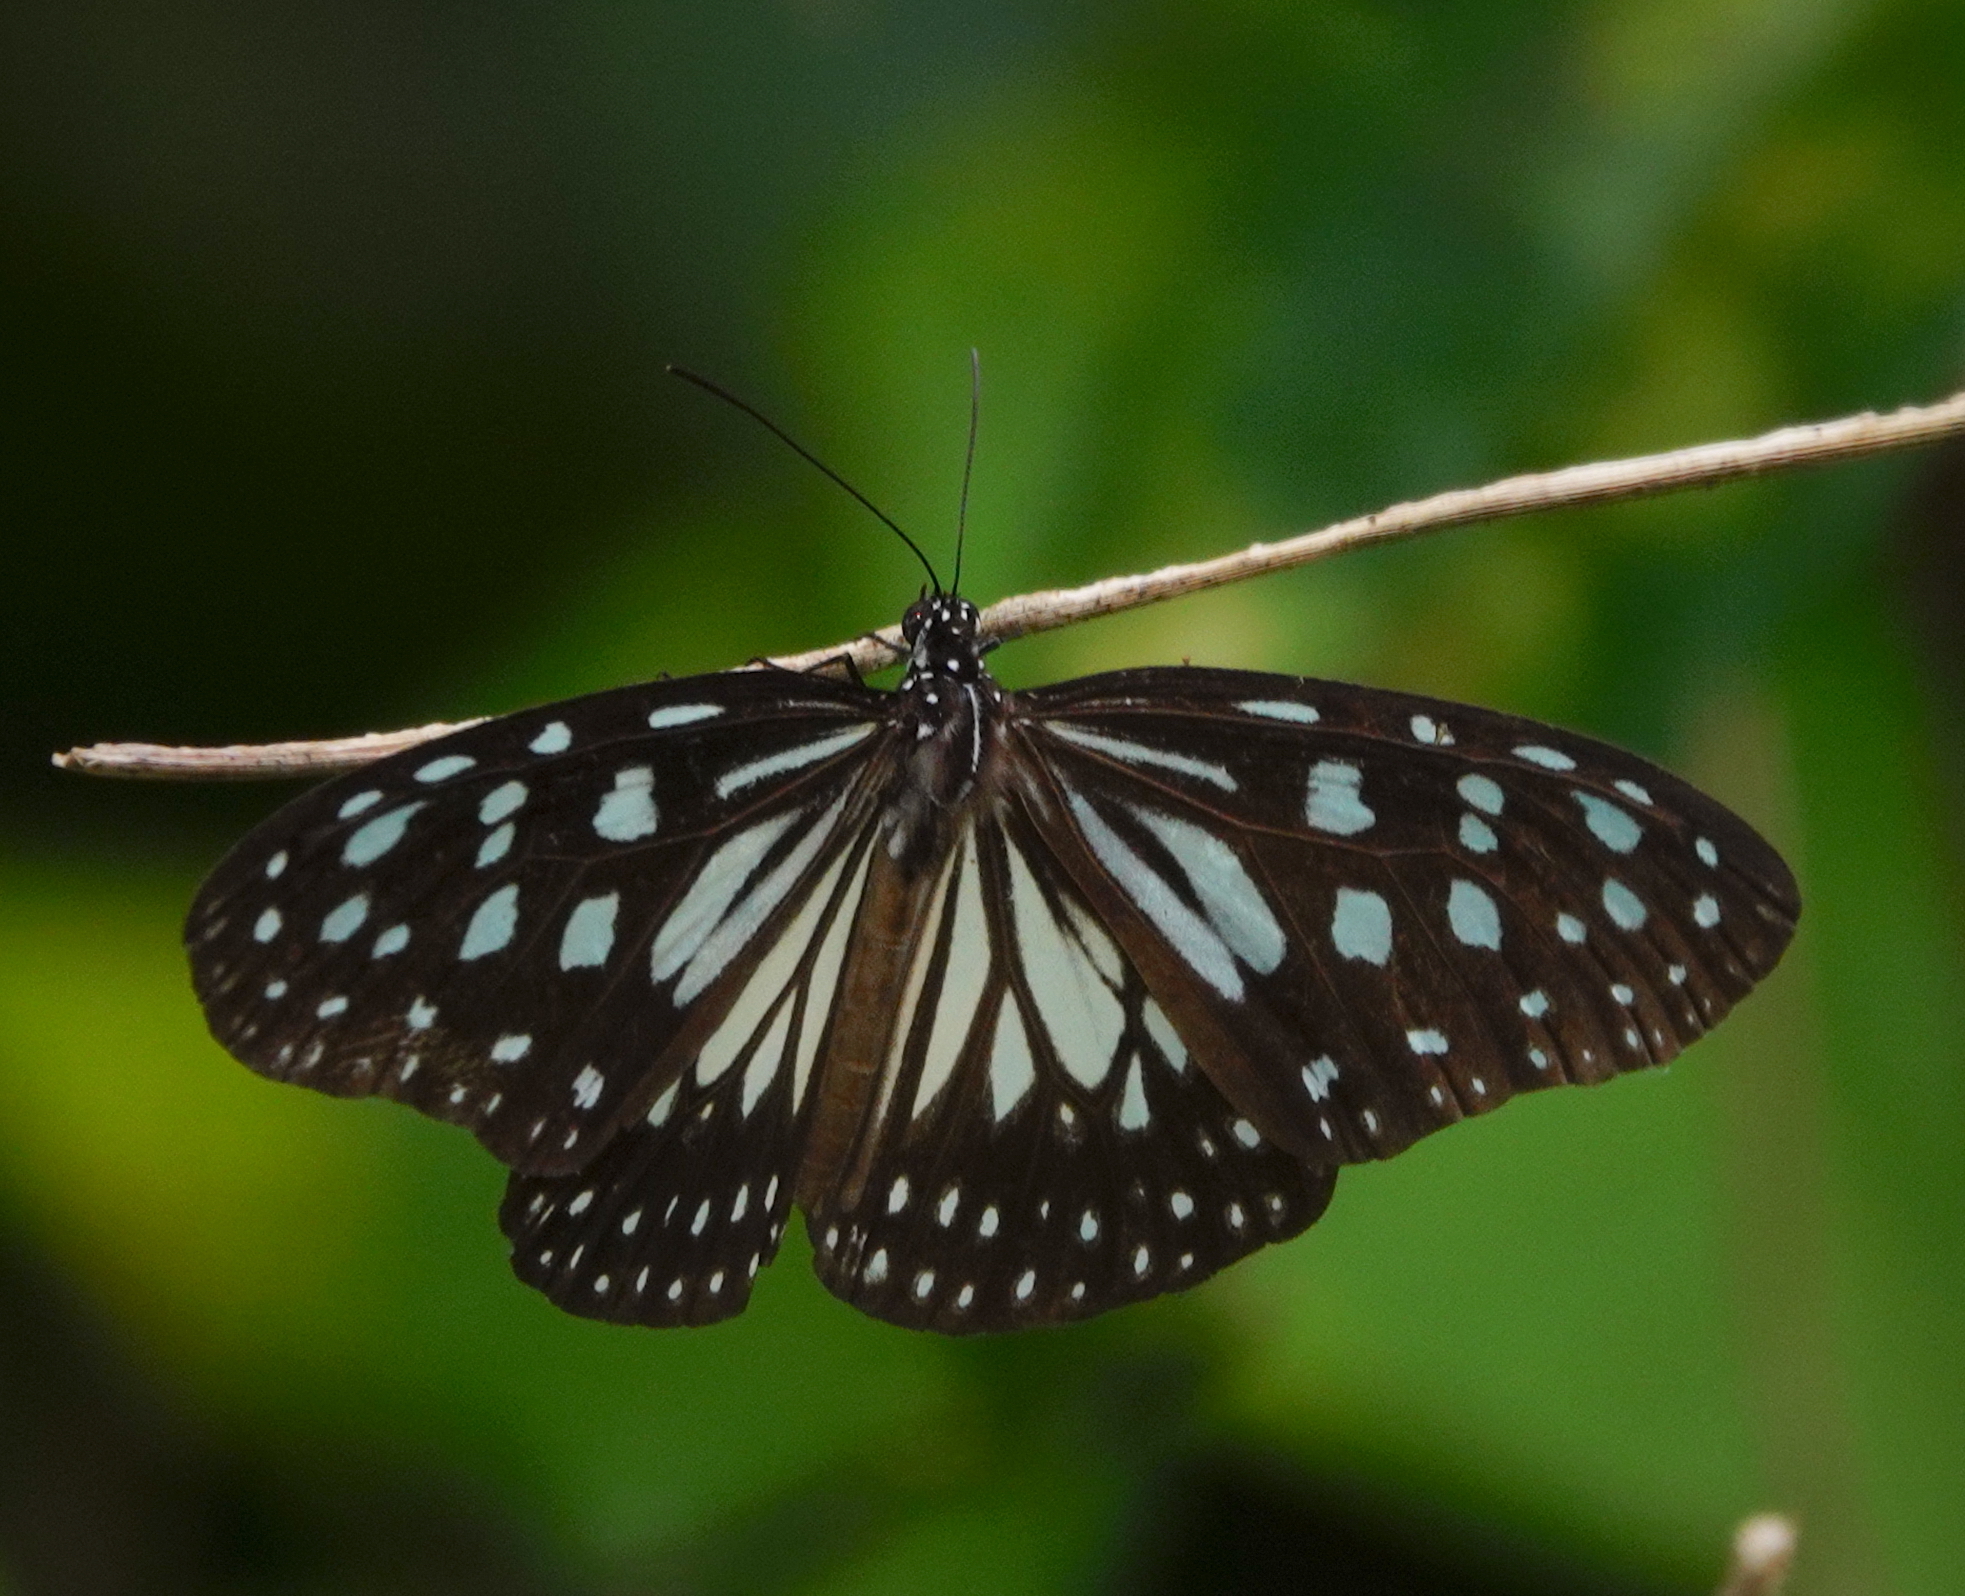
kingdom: Animalia
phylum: Arthropoda
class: Insecta
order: Lepidoptera
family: Nymphalidae
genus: Ideopsis
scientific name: Ideopsis juventa
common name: Grey glassy tiger
